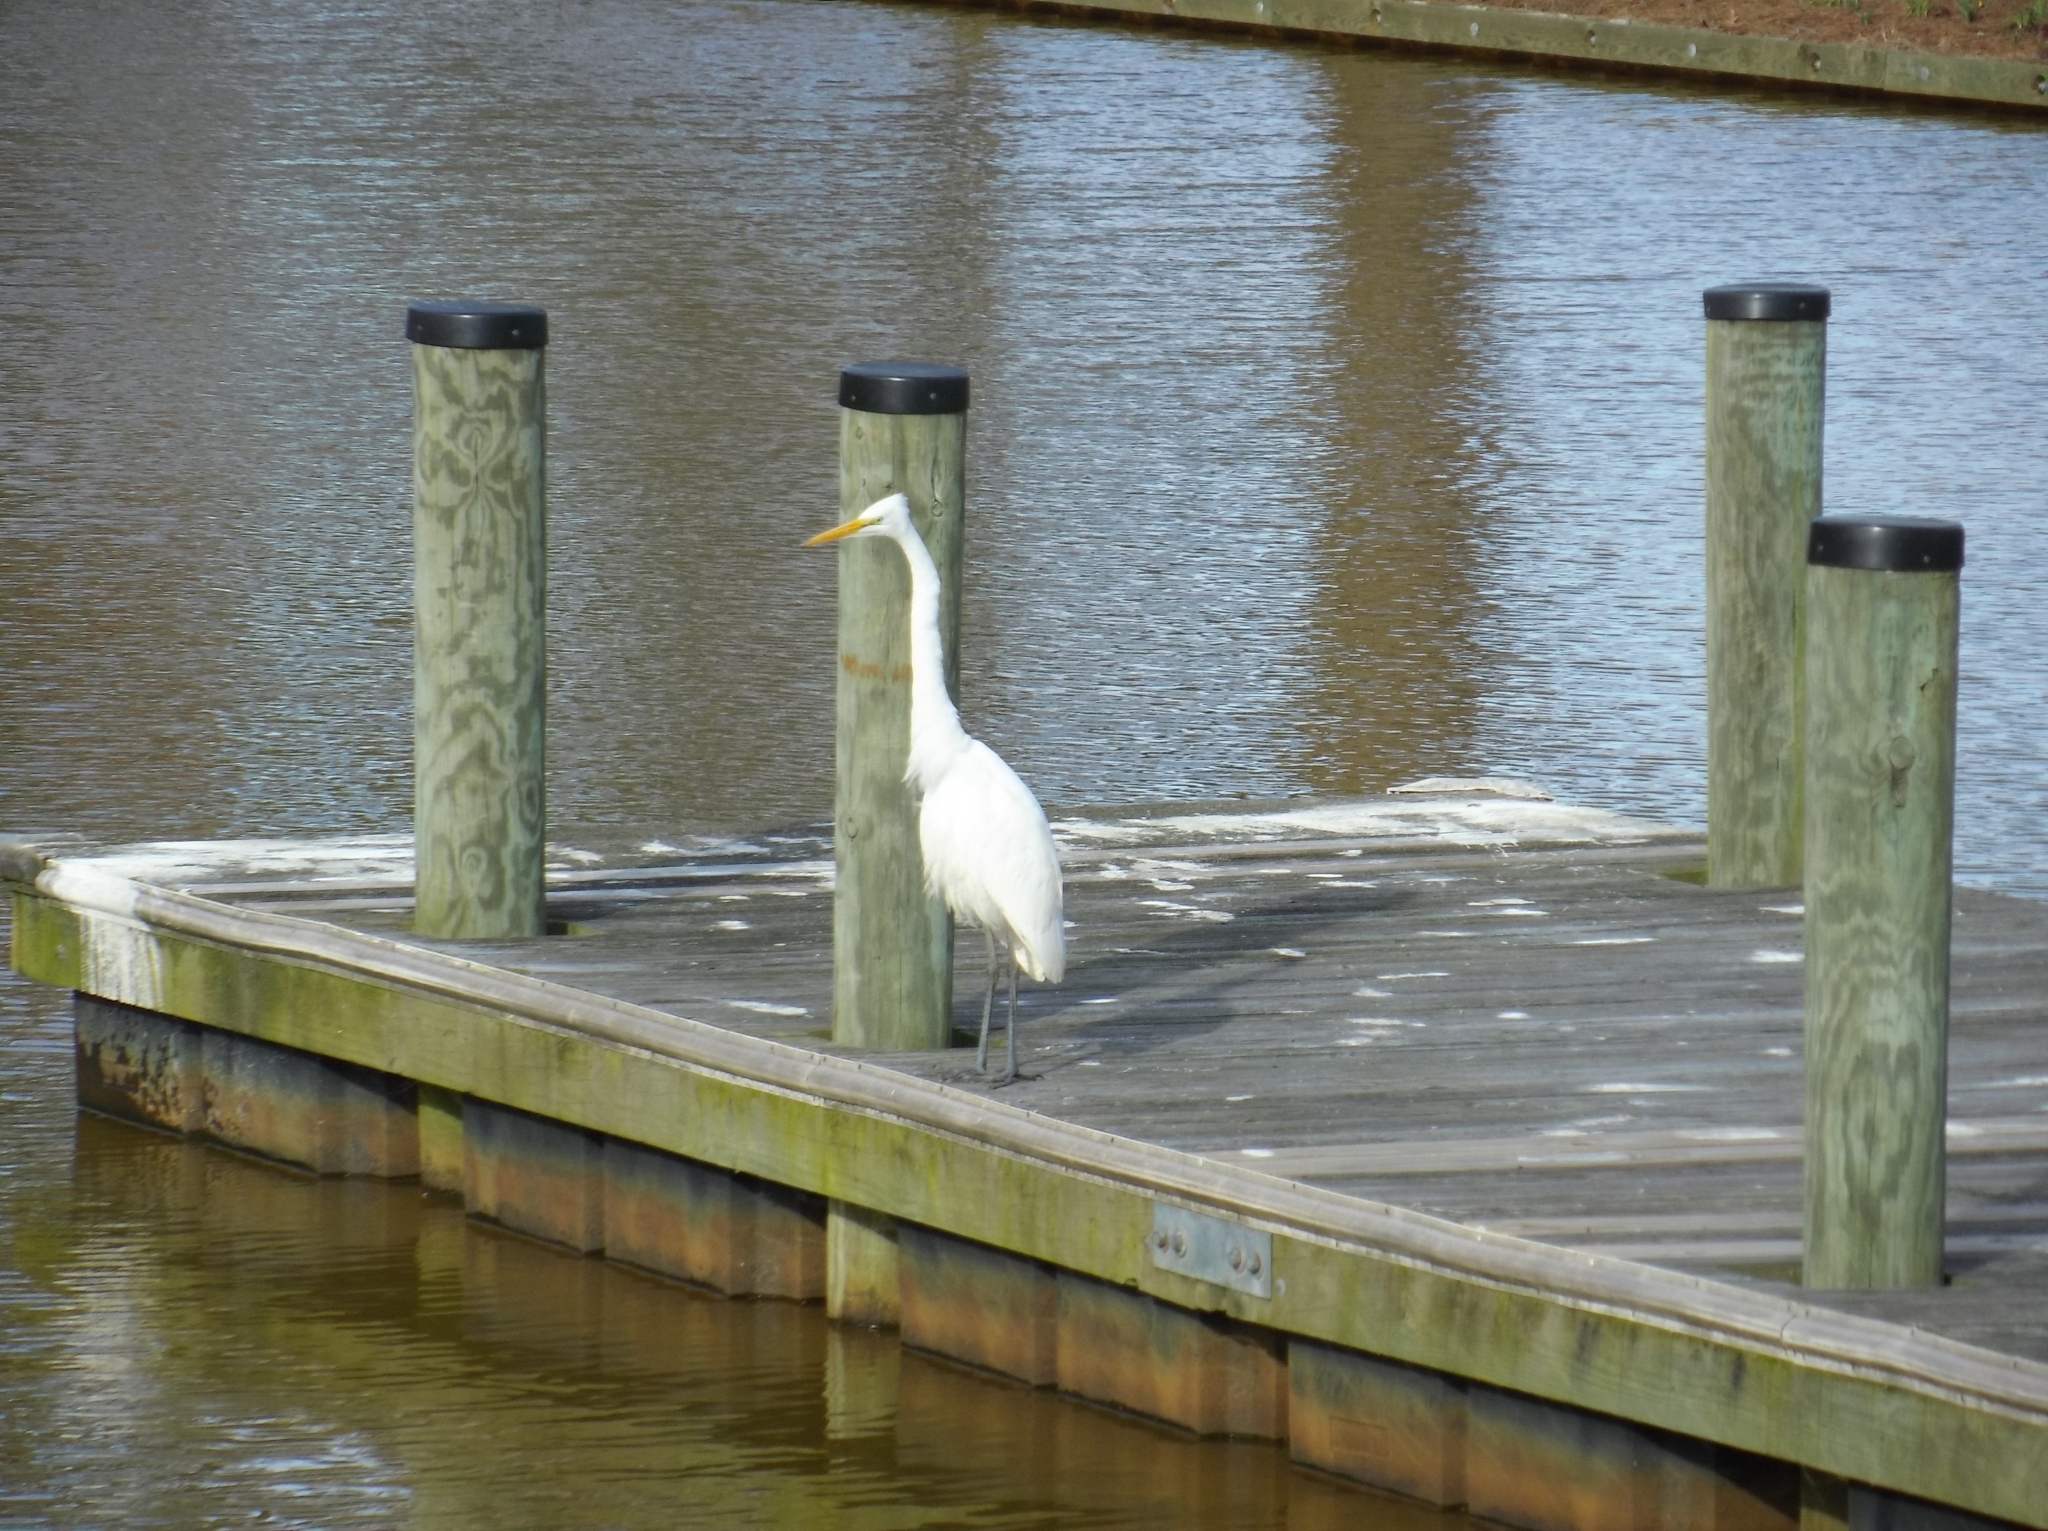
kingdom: Animalia
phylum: Chordata
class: Aves
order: Pelecaniformes
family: Ardeidae
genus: Ardea
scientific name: Ardea alba
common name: Great egret
